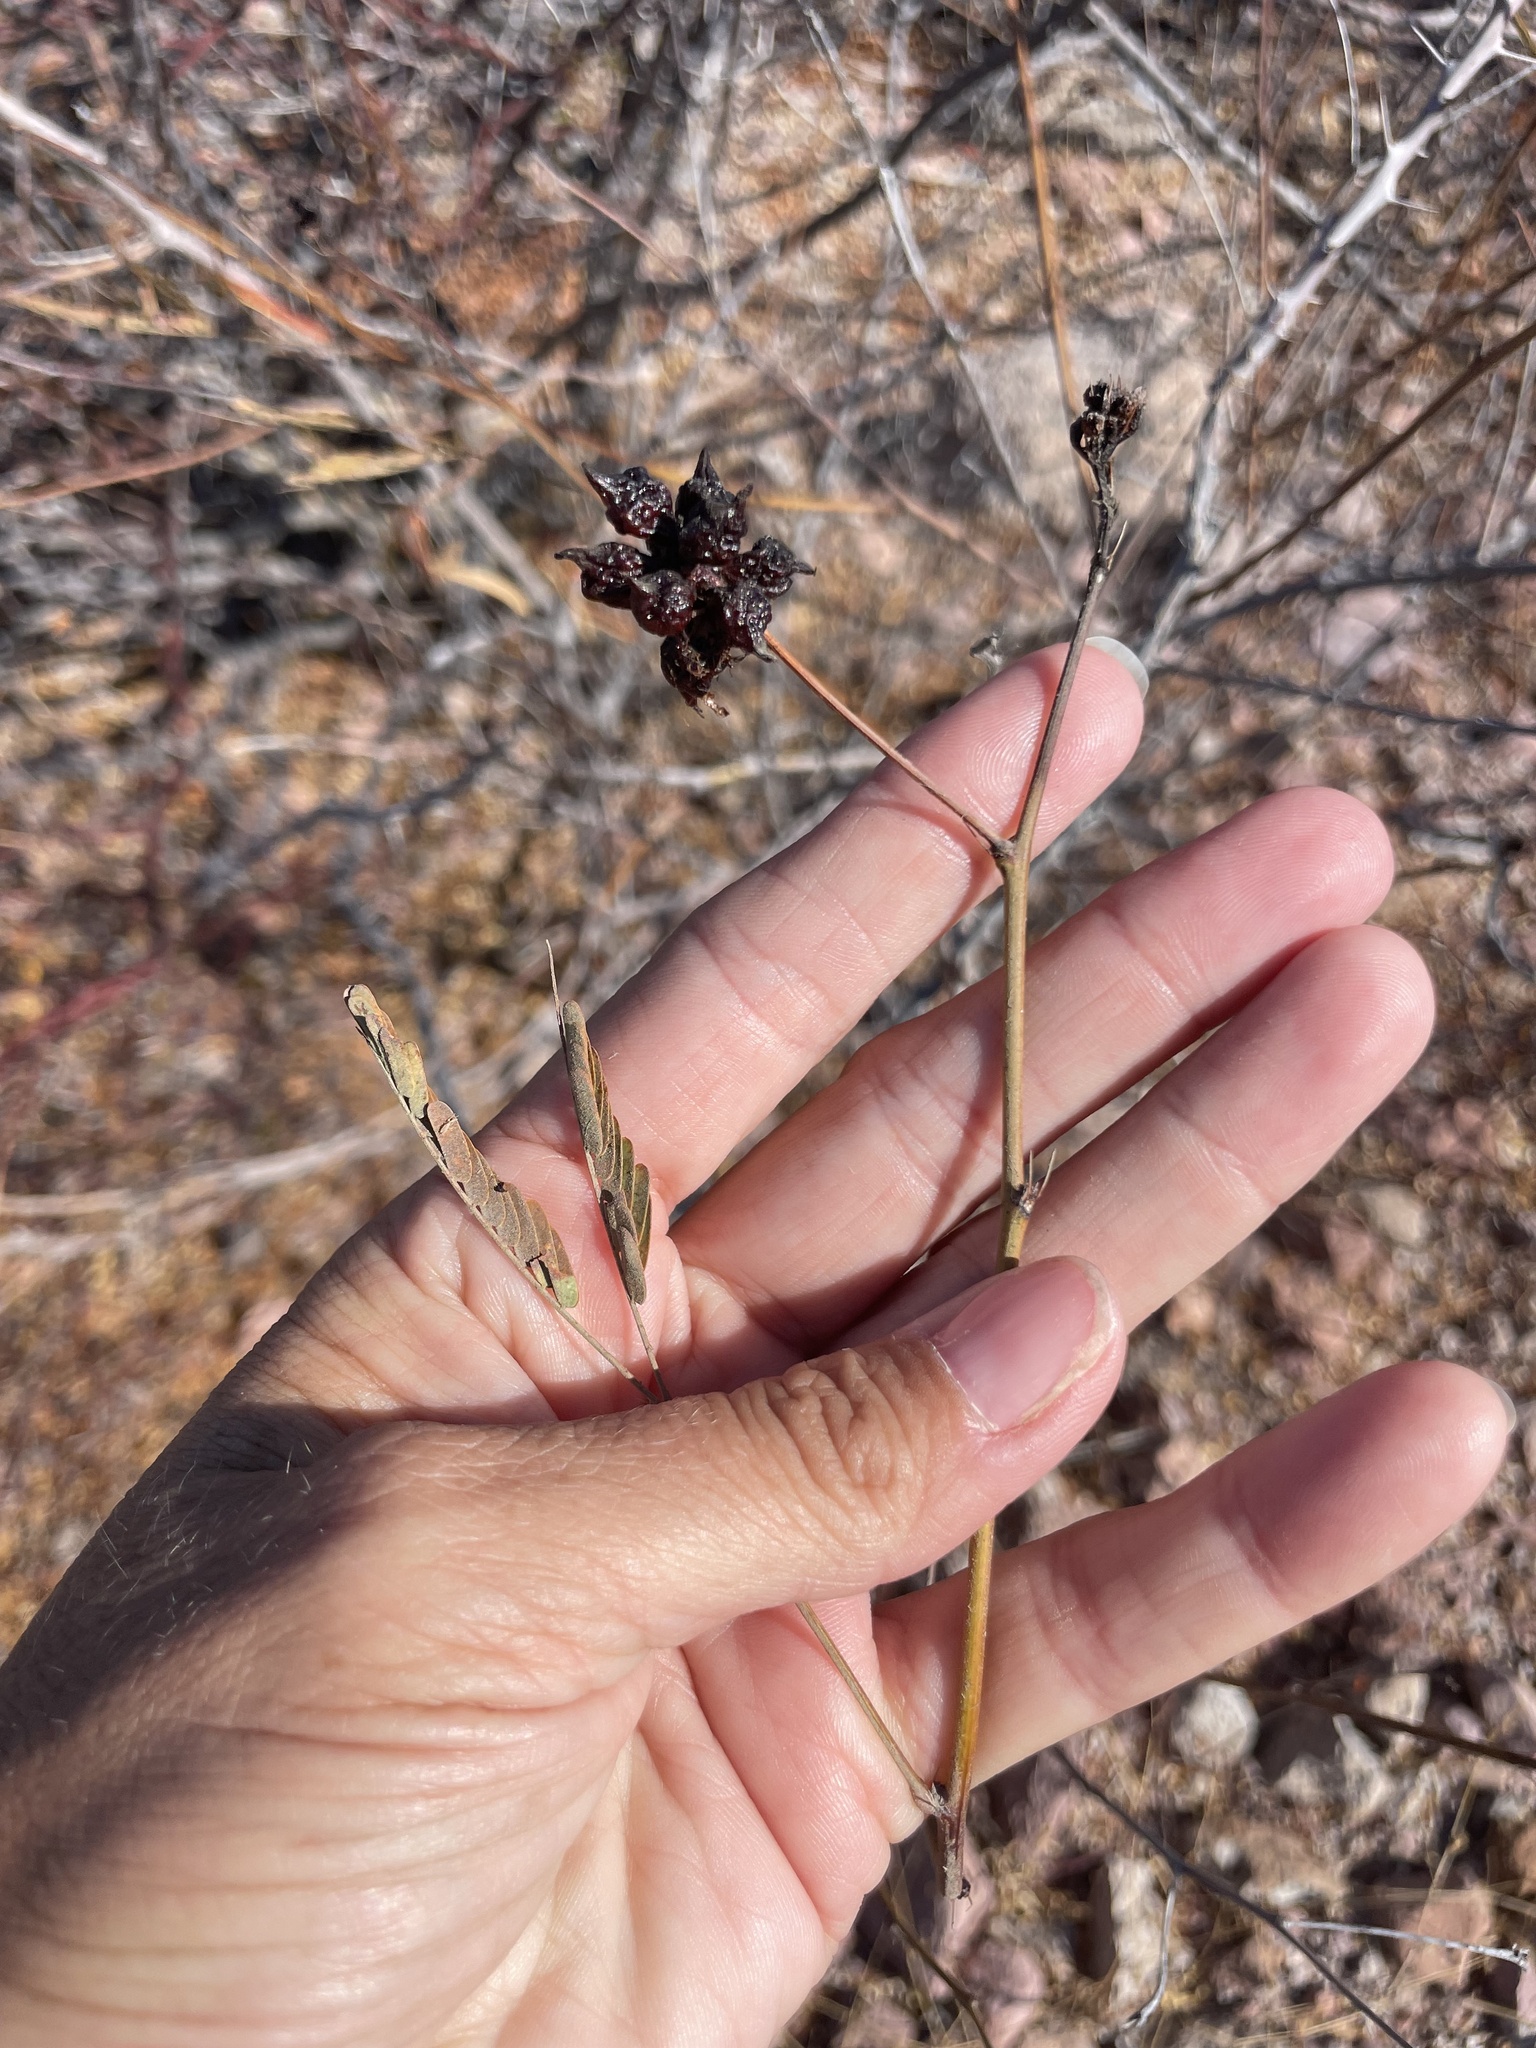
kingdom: Plantae
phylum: Tracheophyta
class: Magnoliopsida
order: Fabales
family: Fabaceae
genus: Desmanthus
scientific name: Desmanthus fruticosus
